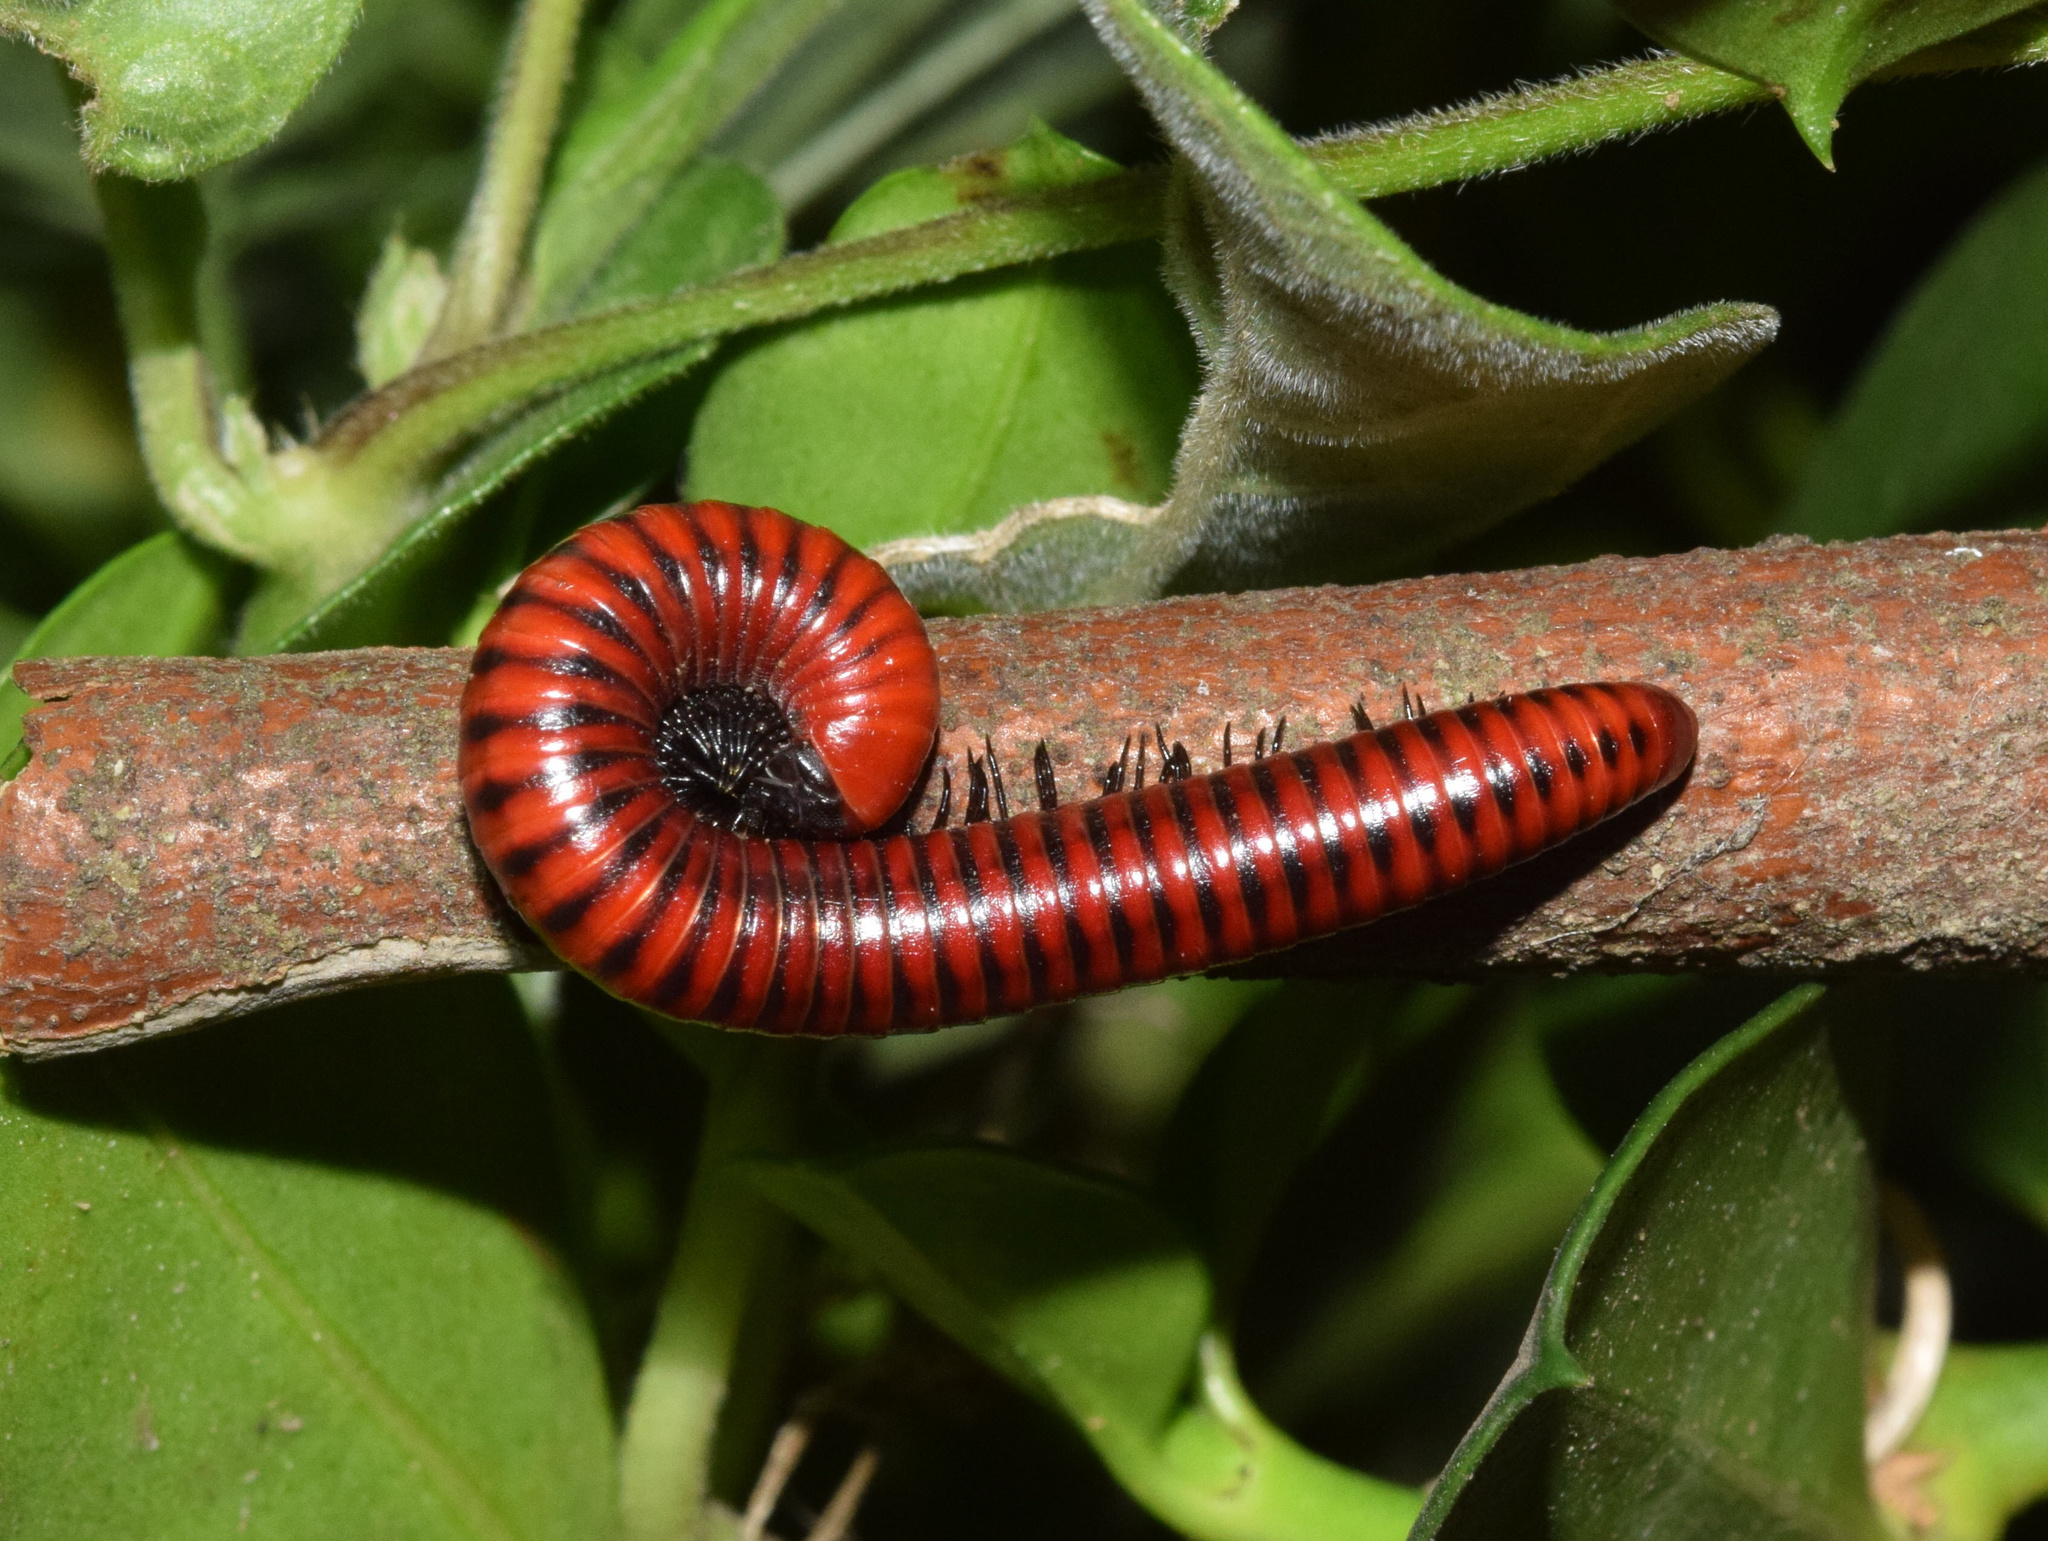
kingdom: Animalia
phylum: Arthropoda
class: Diplopoda
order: Spirobolida
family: Pachybolidae
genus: Centrobolus
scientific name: Centrobolus anulatus
